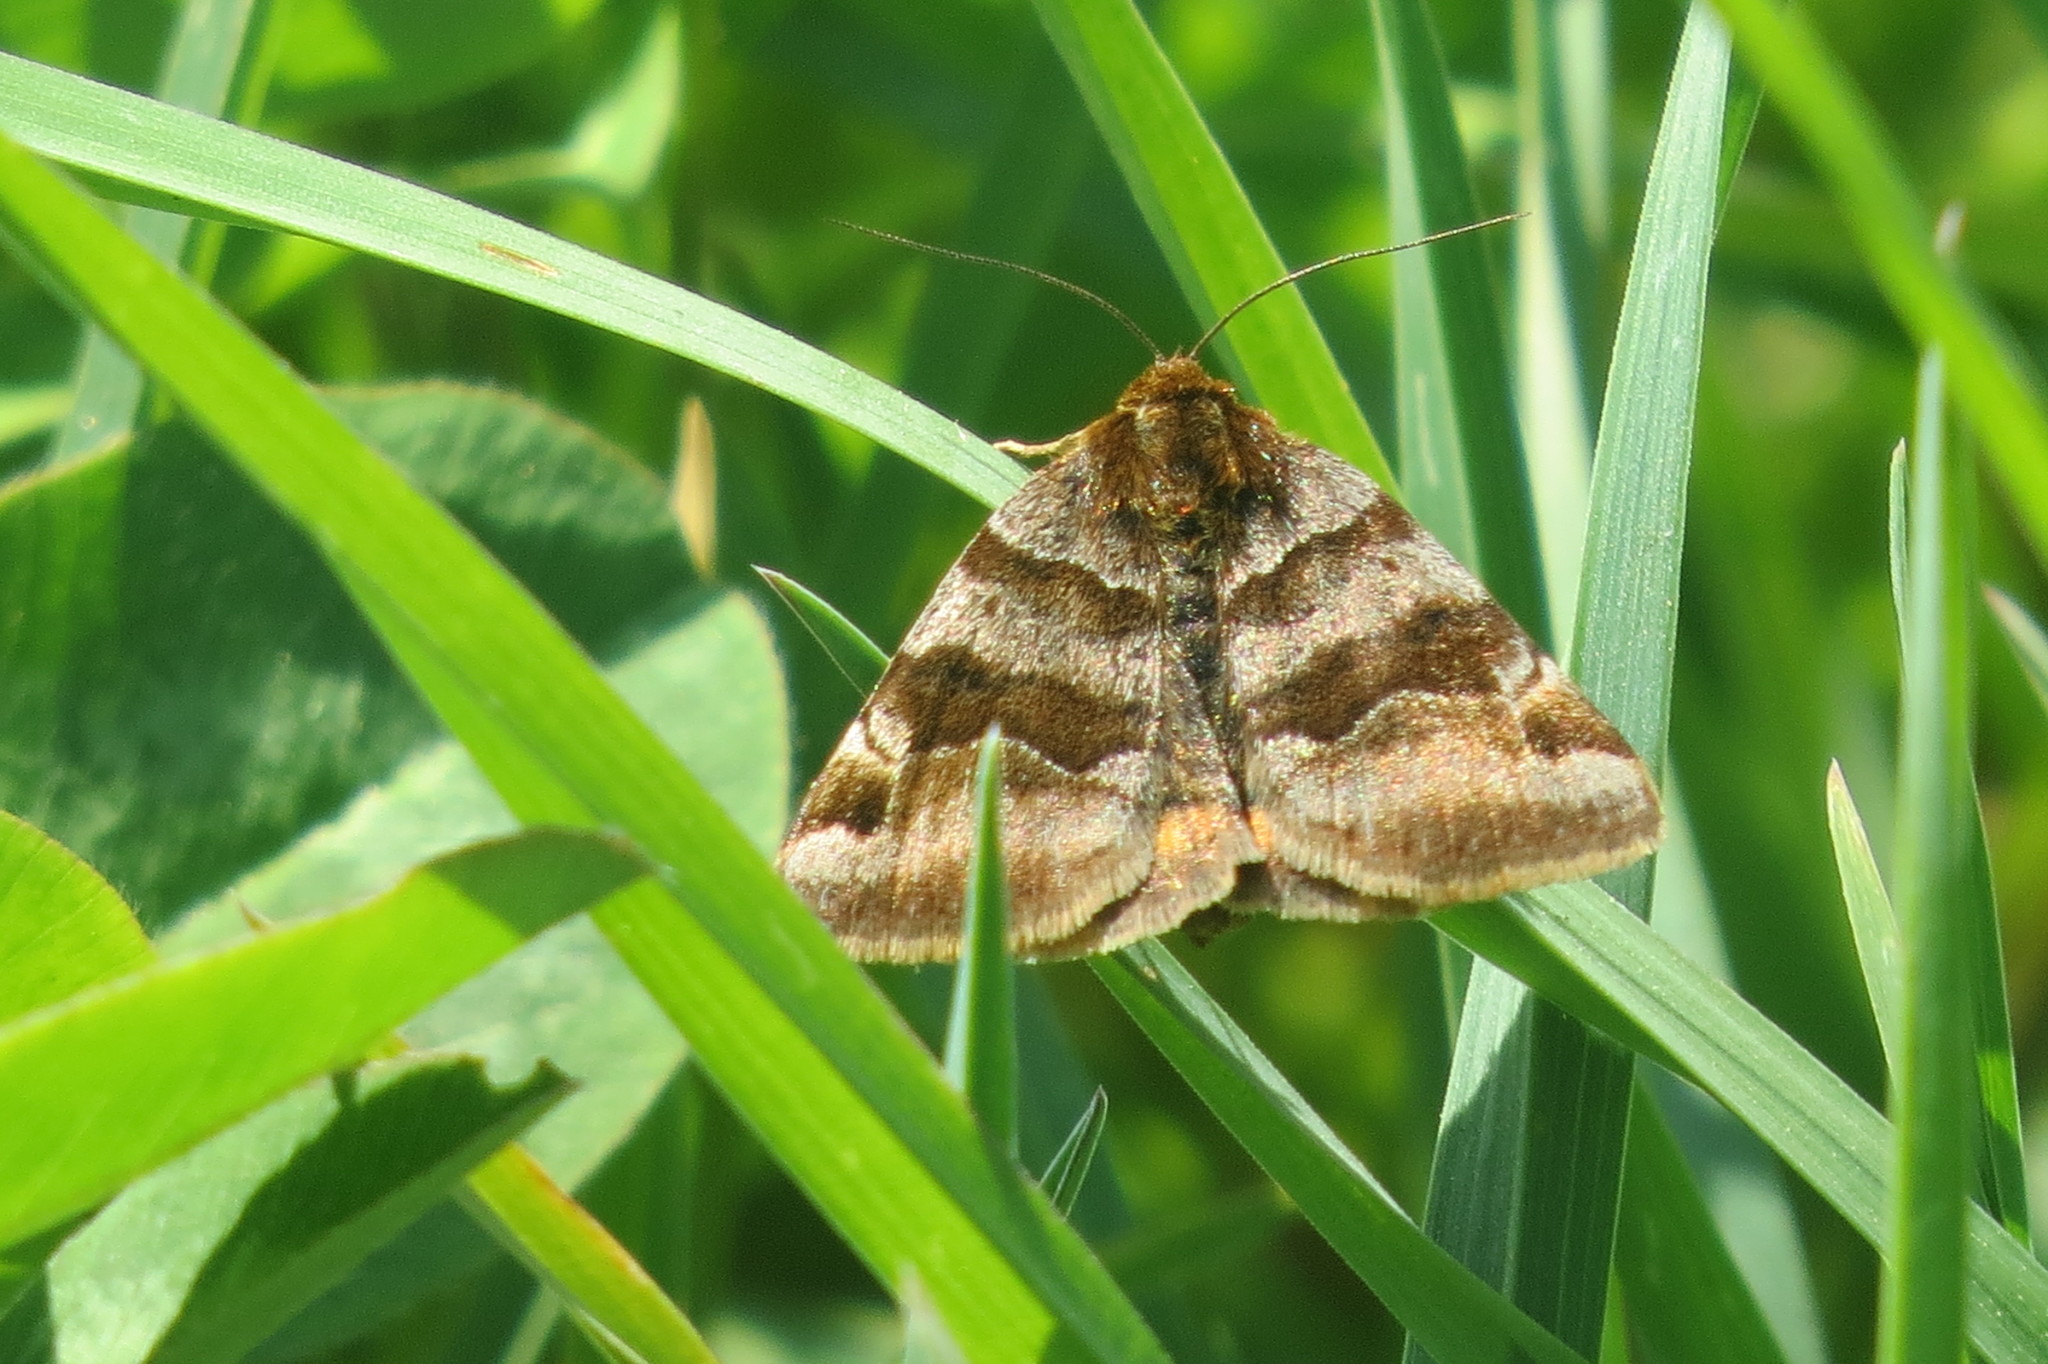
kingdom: Animalia
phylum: Arthropoda
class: Insecta
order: Lepidoptera
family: Erebidae
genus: Euclidia
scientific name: Euclidia glyphica
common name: Burnet companion
